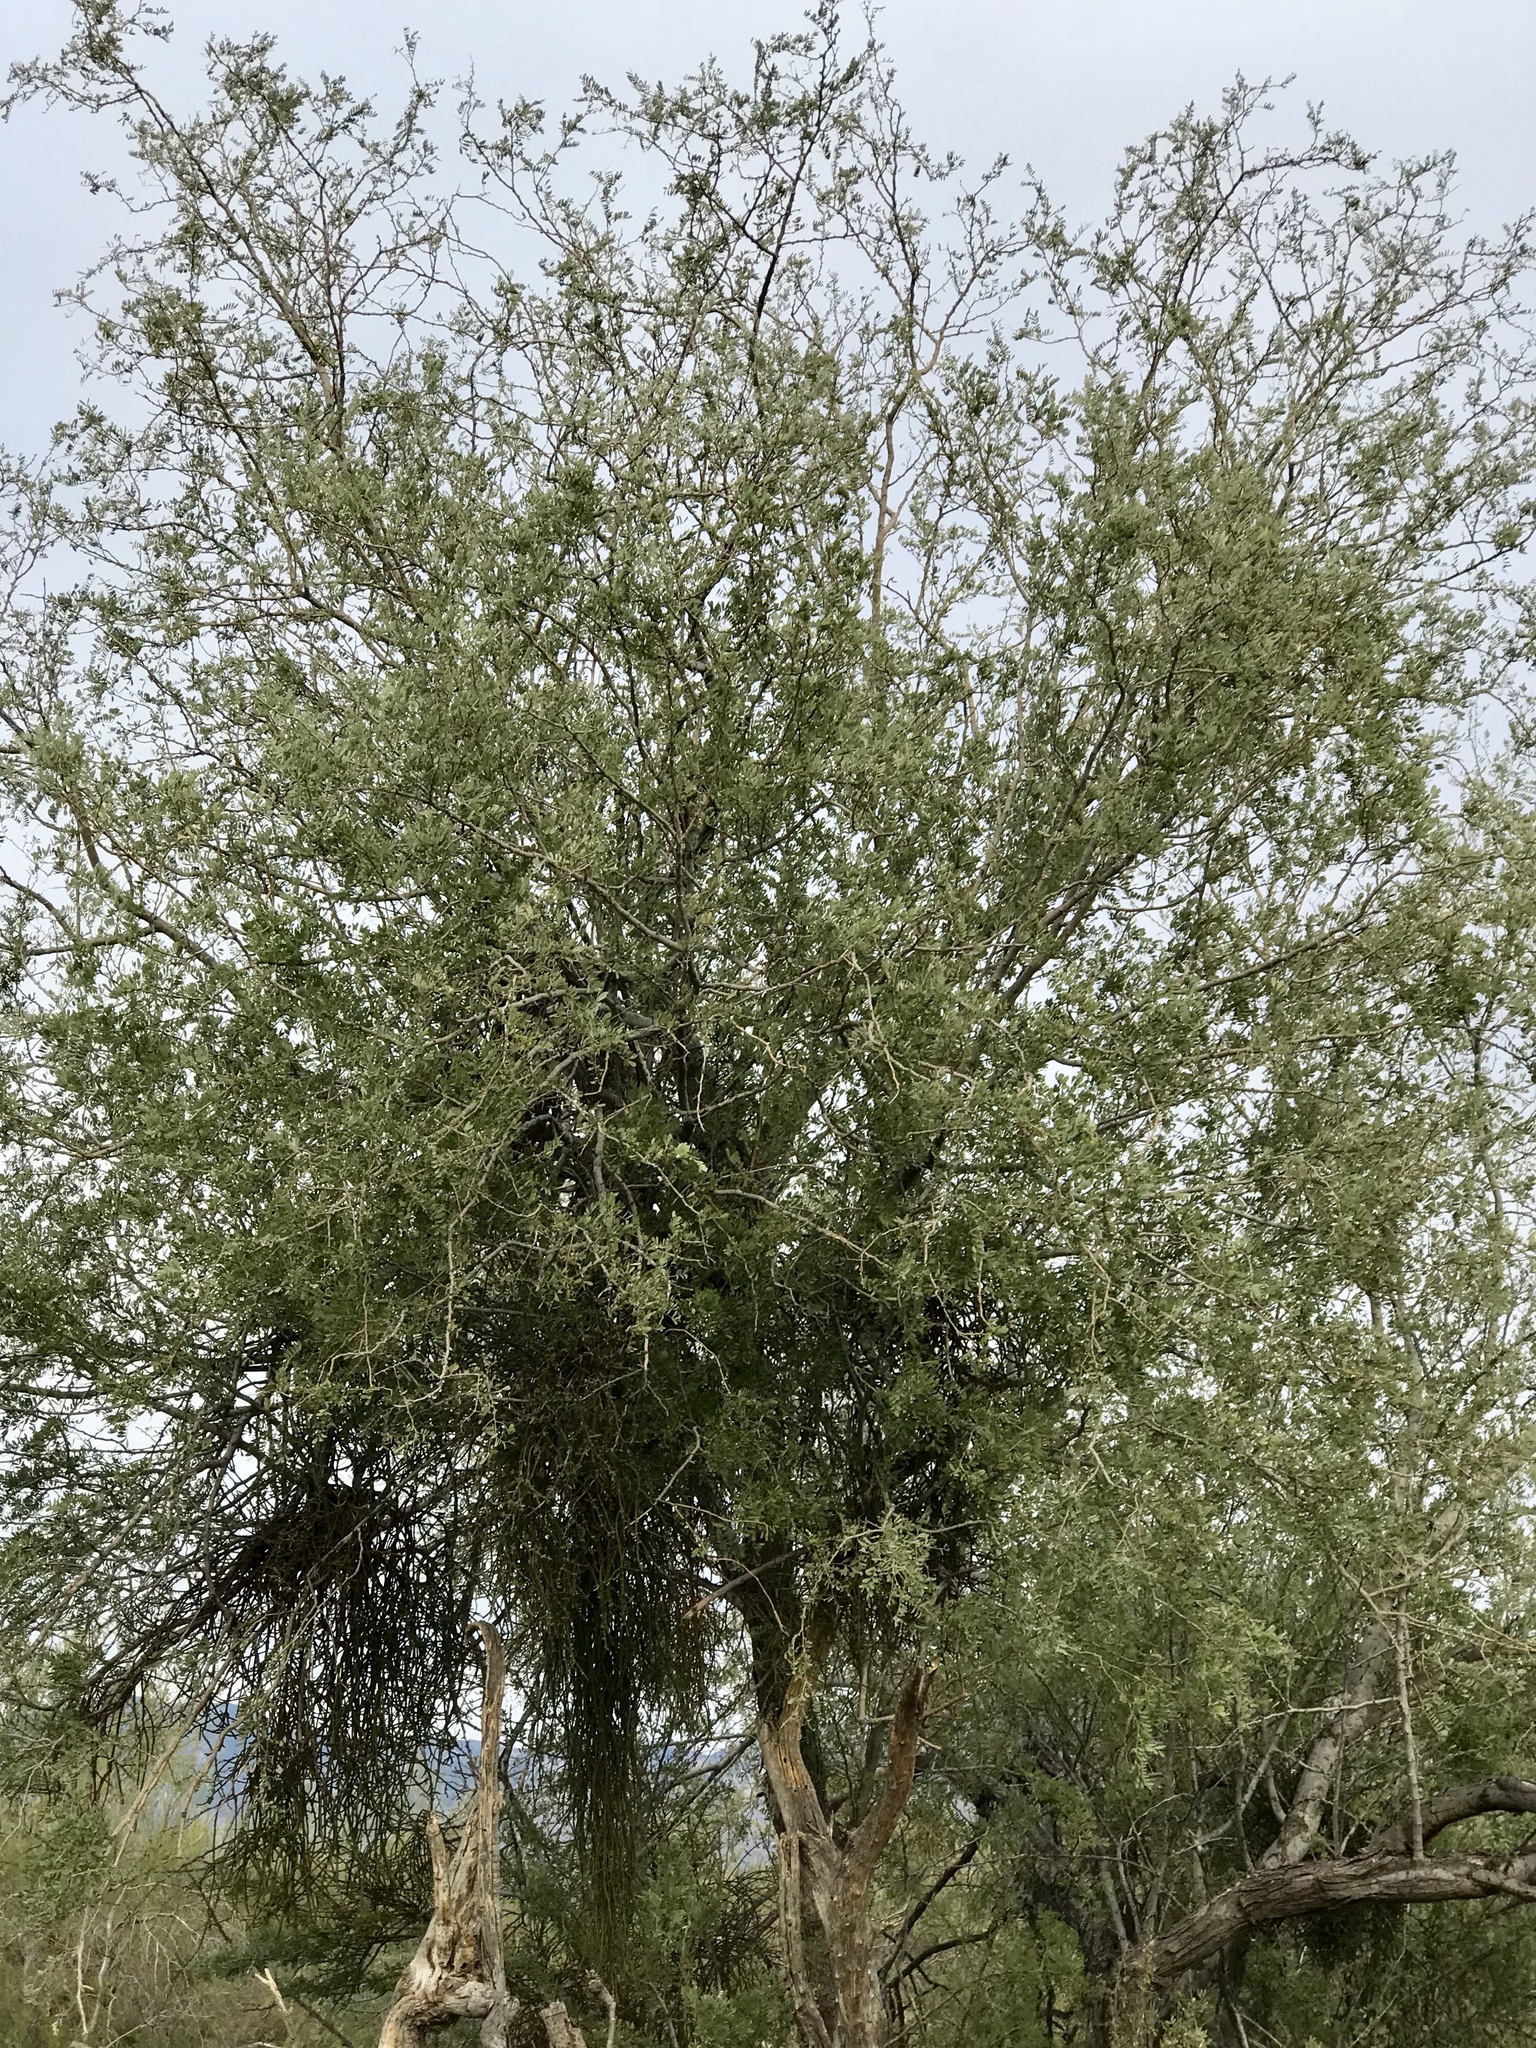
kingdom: Plantae
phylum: Tracheophyta
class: Magnoliopsida
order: Fabales
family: Fabaceae
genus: Olneya
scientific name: Olneya tesota
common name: Desert ironwood
